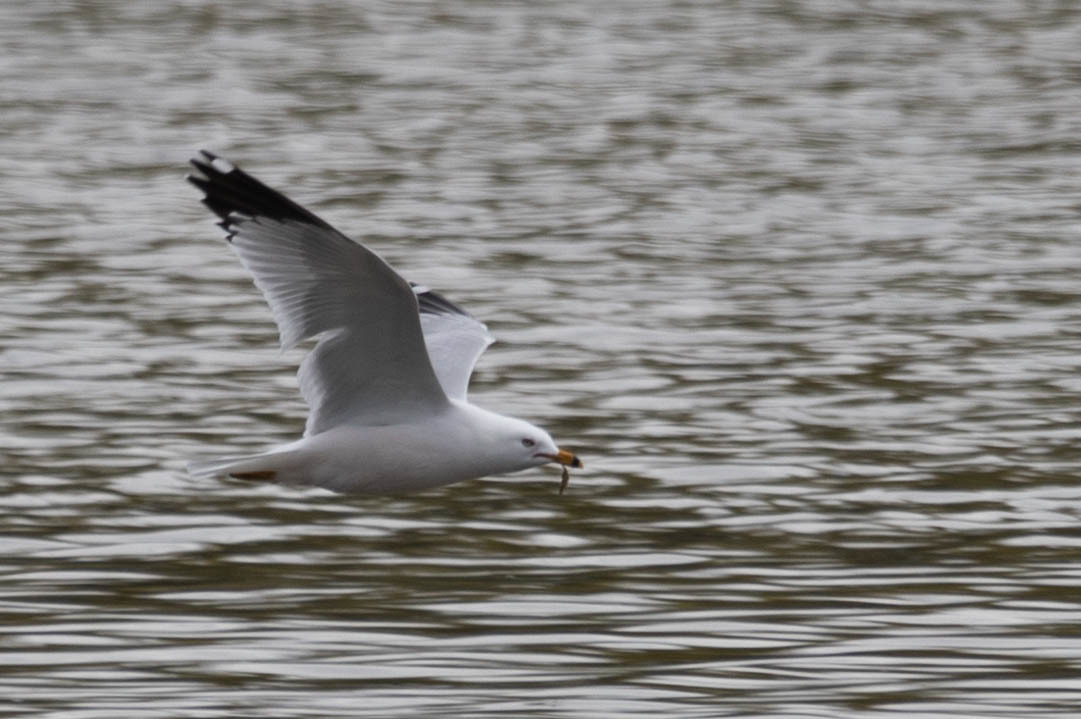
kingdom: Animalia
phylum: Chordata
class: Aves
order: Charadriiformes
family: Laridae
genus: Larus
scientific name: Larus delawarensis
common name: Ring-billed gull
